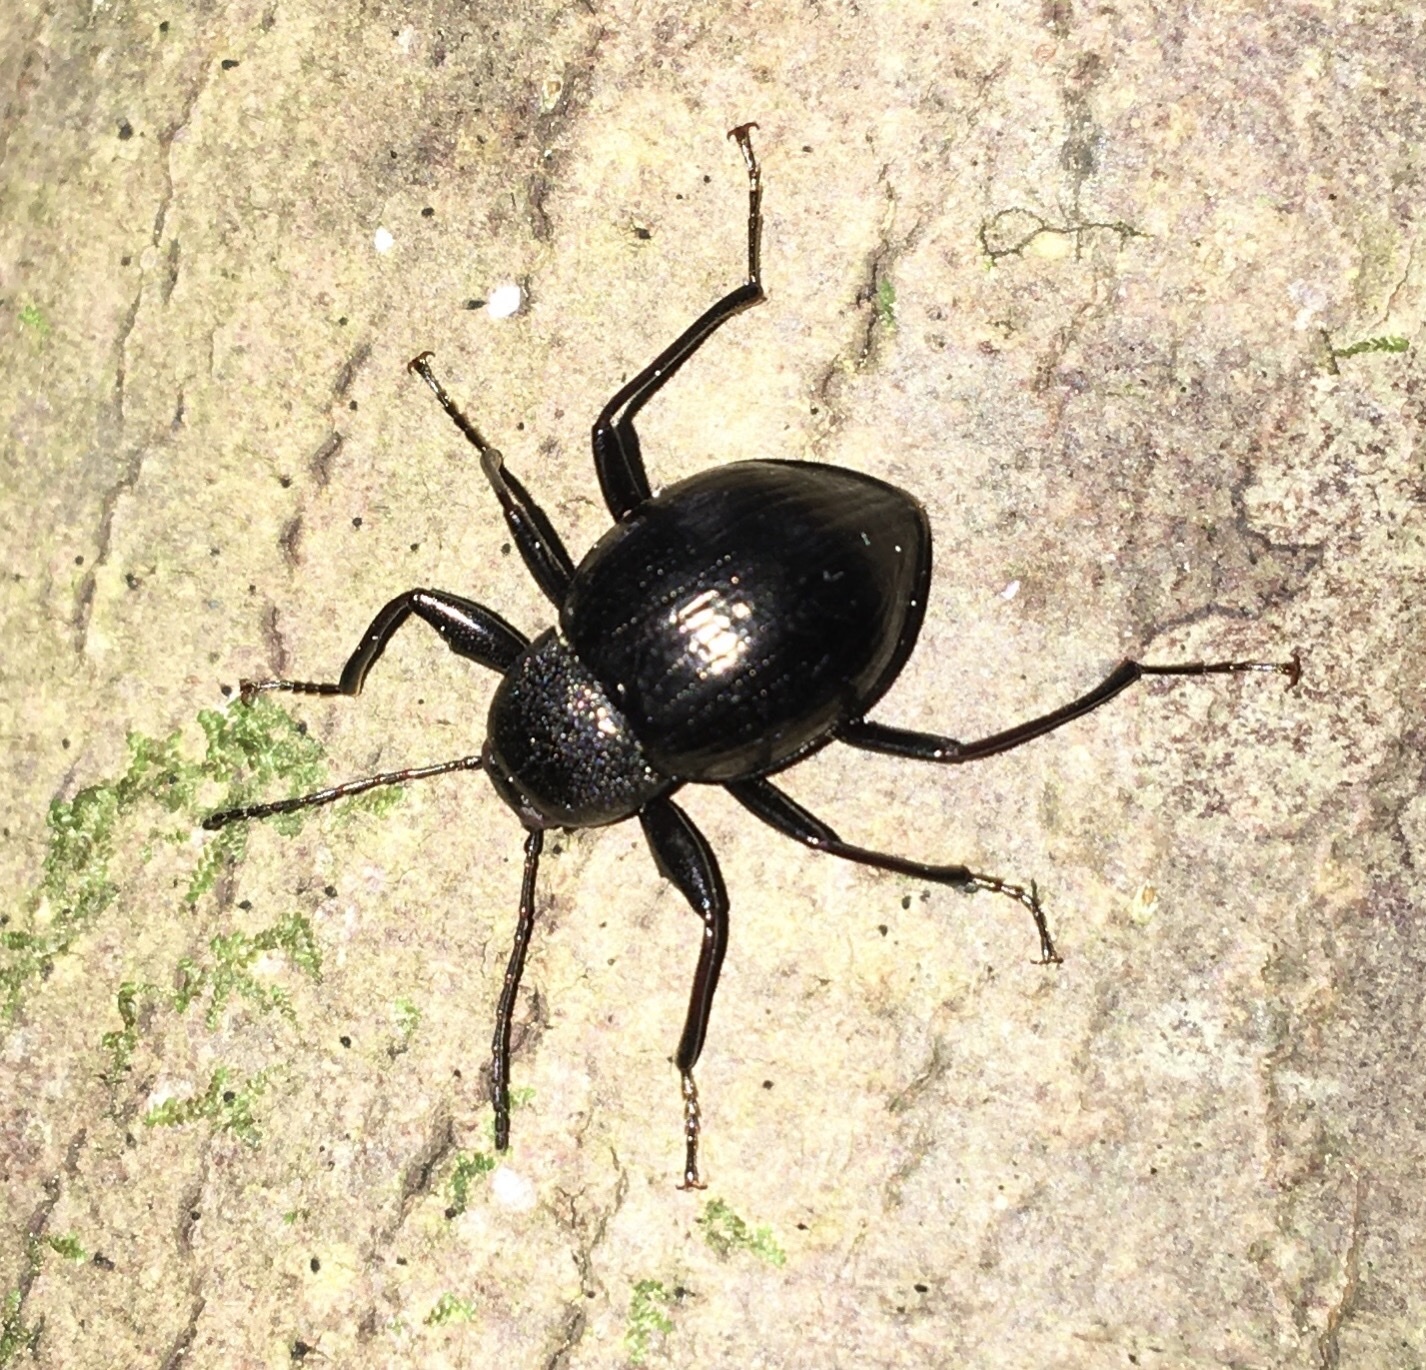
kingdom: Animalia
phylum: Arthropoda
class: Insecta
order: Coleoptera
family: Tenebrionidae
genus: Meracantha
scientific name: Meracantha contracta
